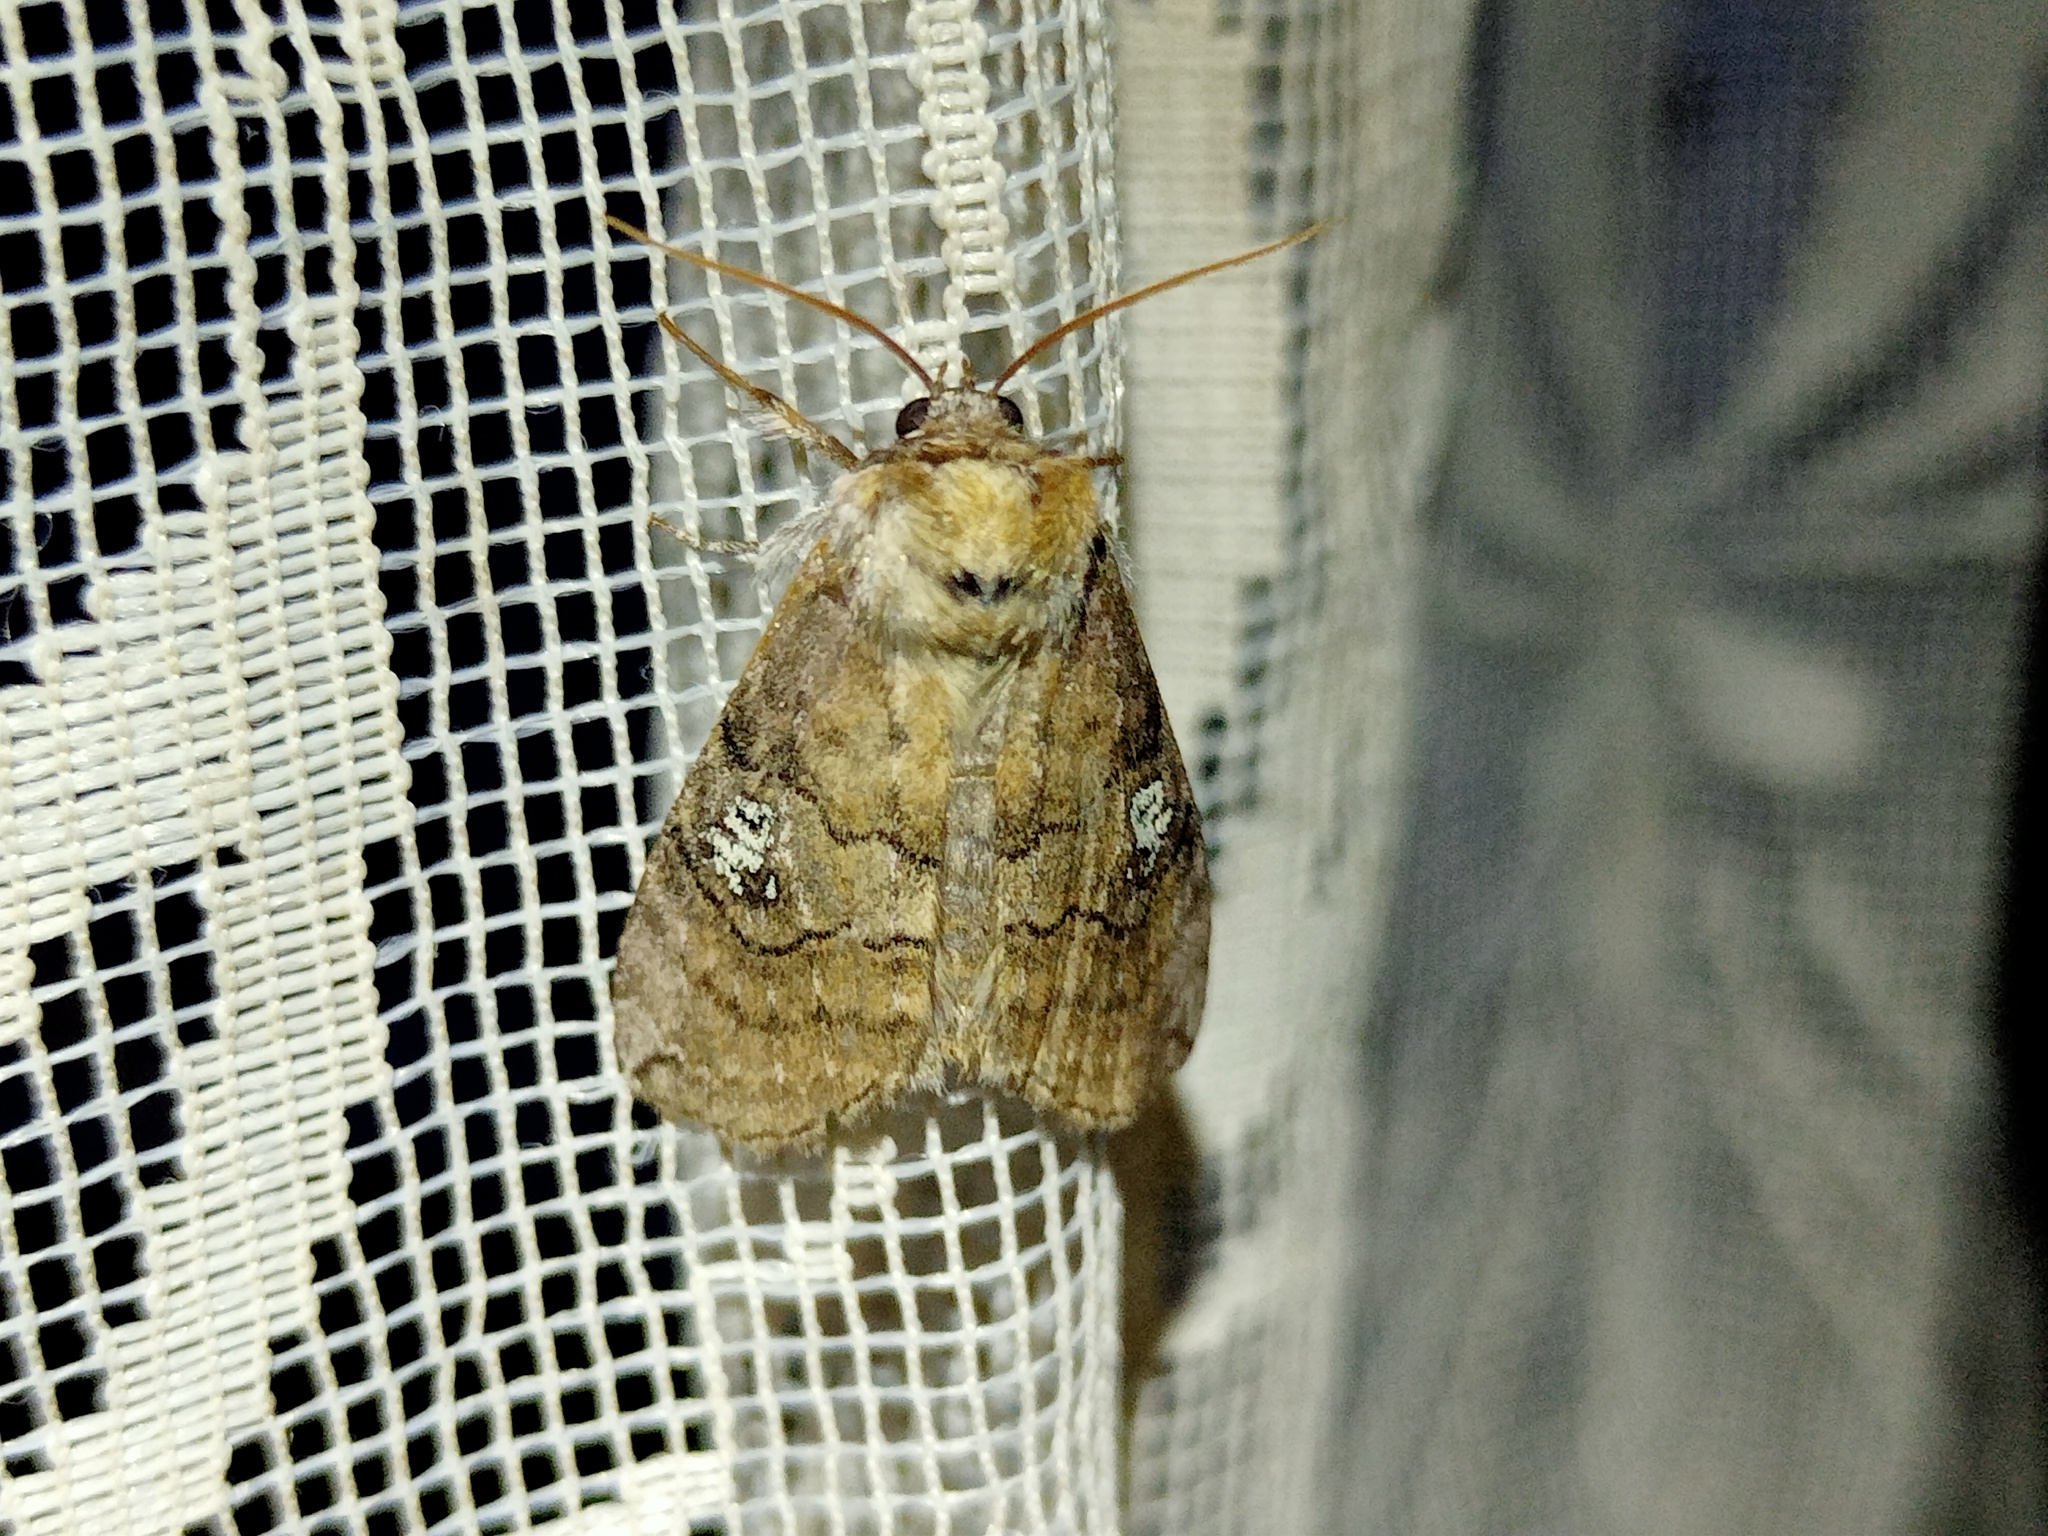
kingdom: Animalia
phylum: Arthropoda
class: Insecta
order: Lepidoptera
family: Drepanidae
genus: Tethea
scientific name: Tethea ocularis
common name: Figure of eighty
